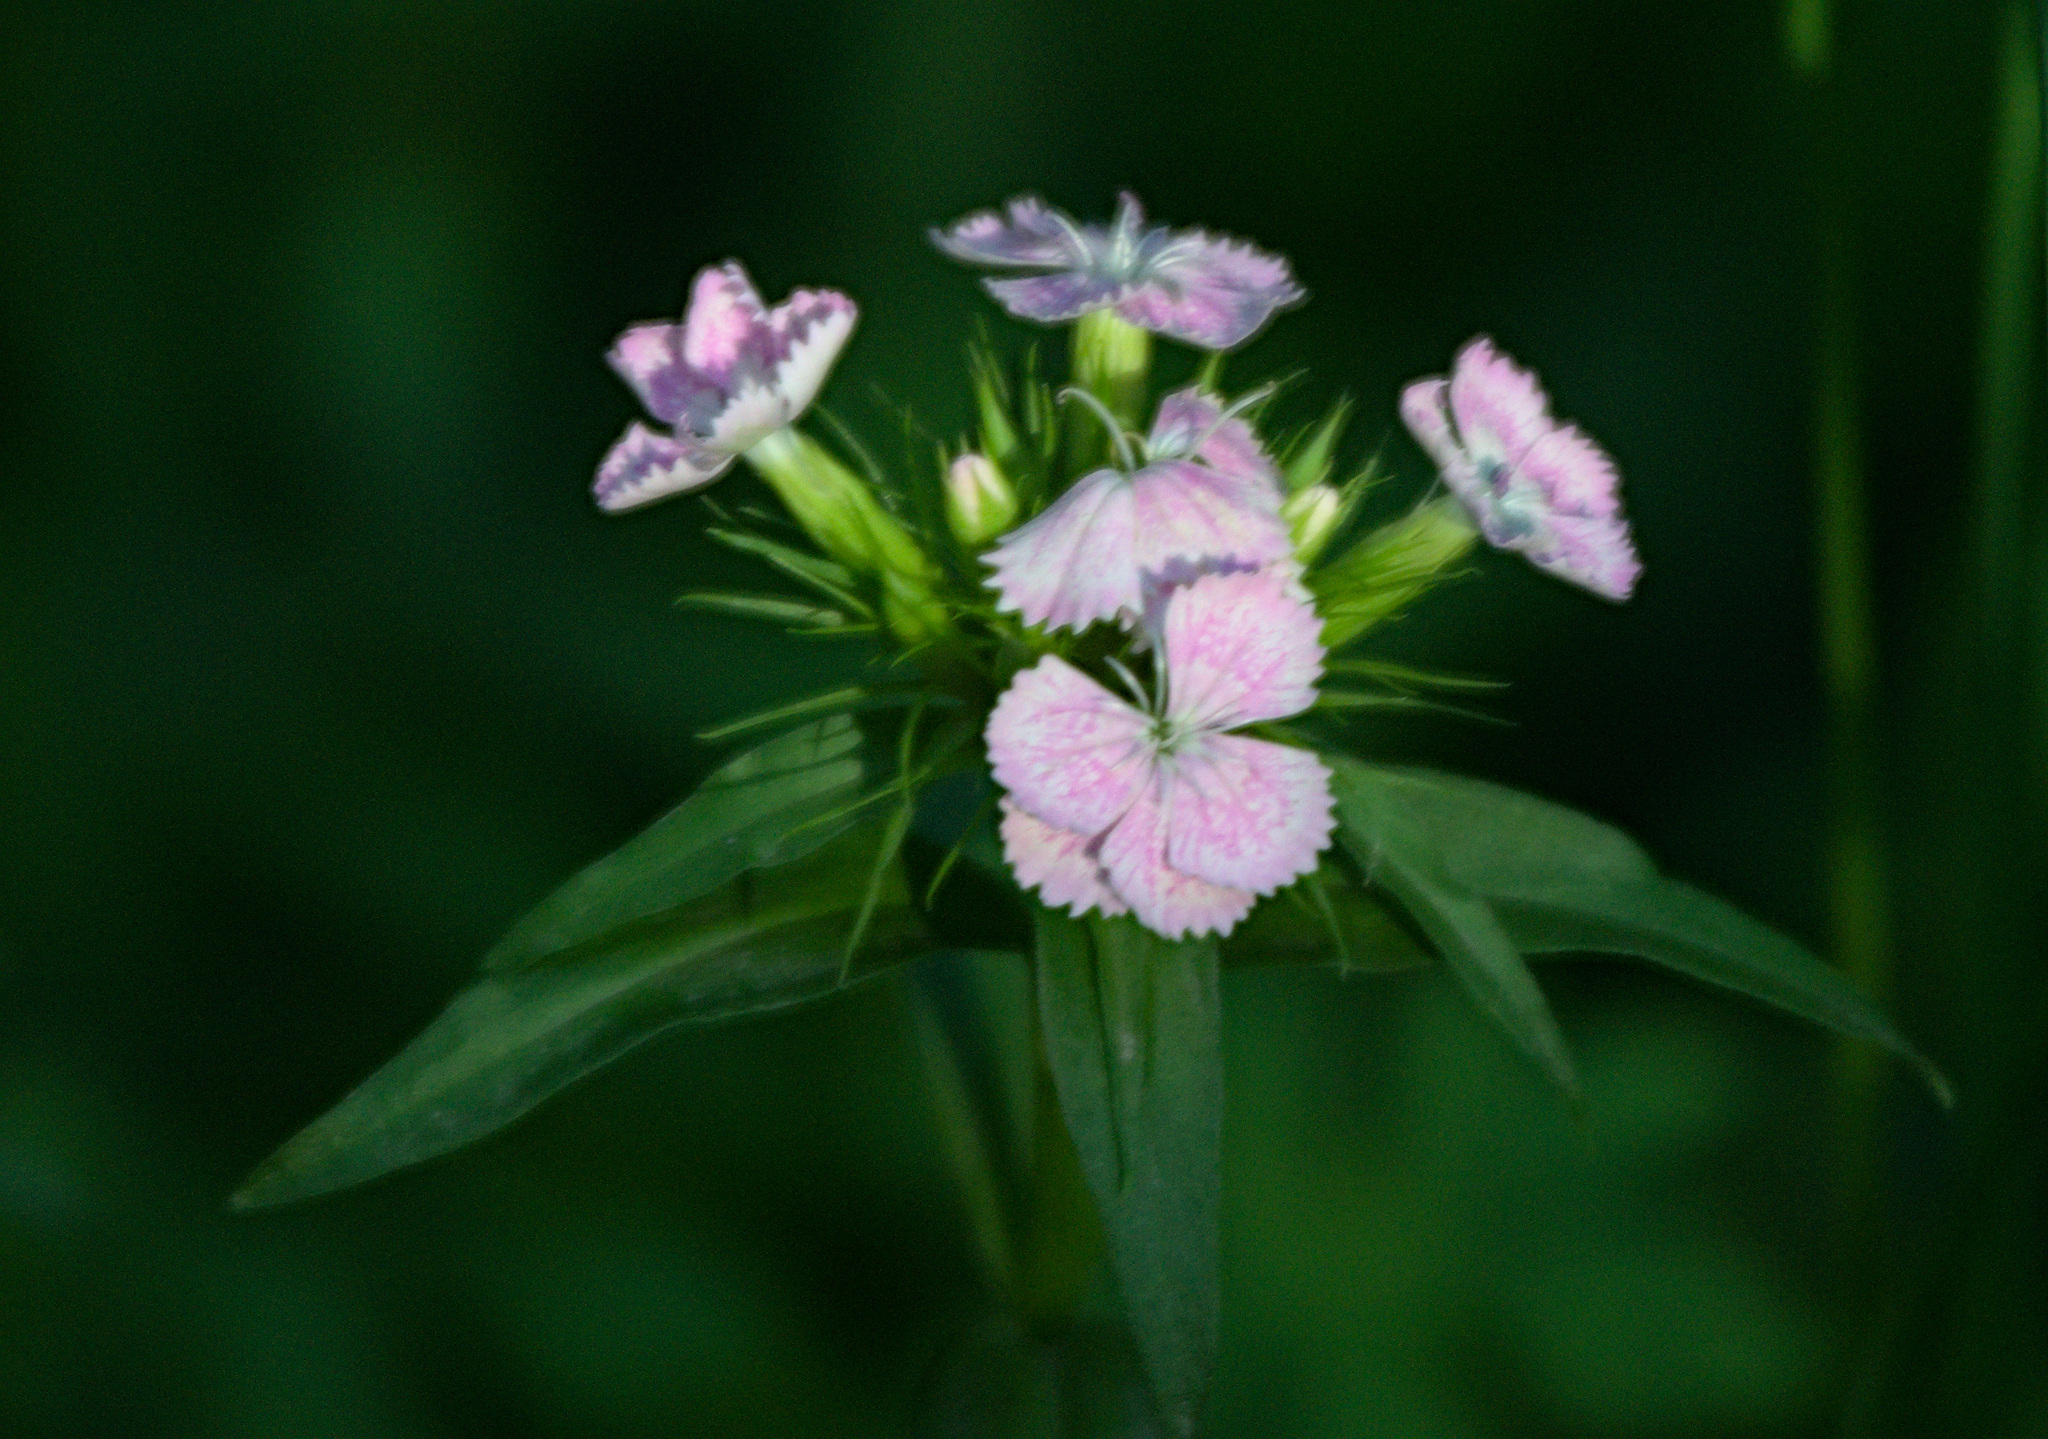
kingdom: Plantae
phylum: Tracheophyta
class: Magnoliopsida
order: Caryophyllales
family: Caryophyllaceae
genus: Dianthus
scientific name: Dianthus barbatus
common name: Sweet-william
